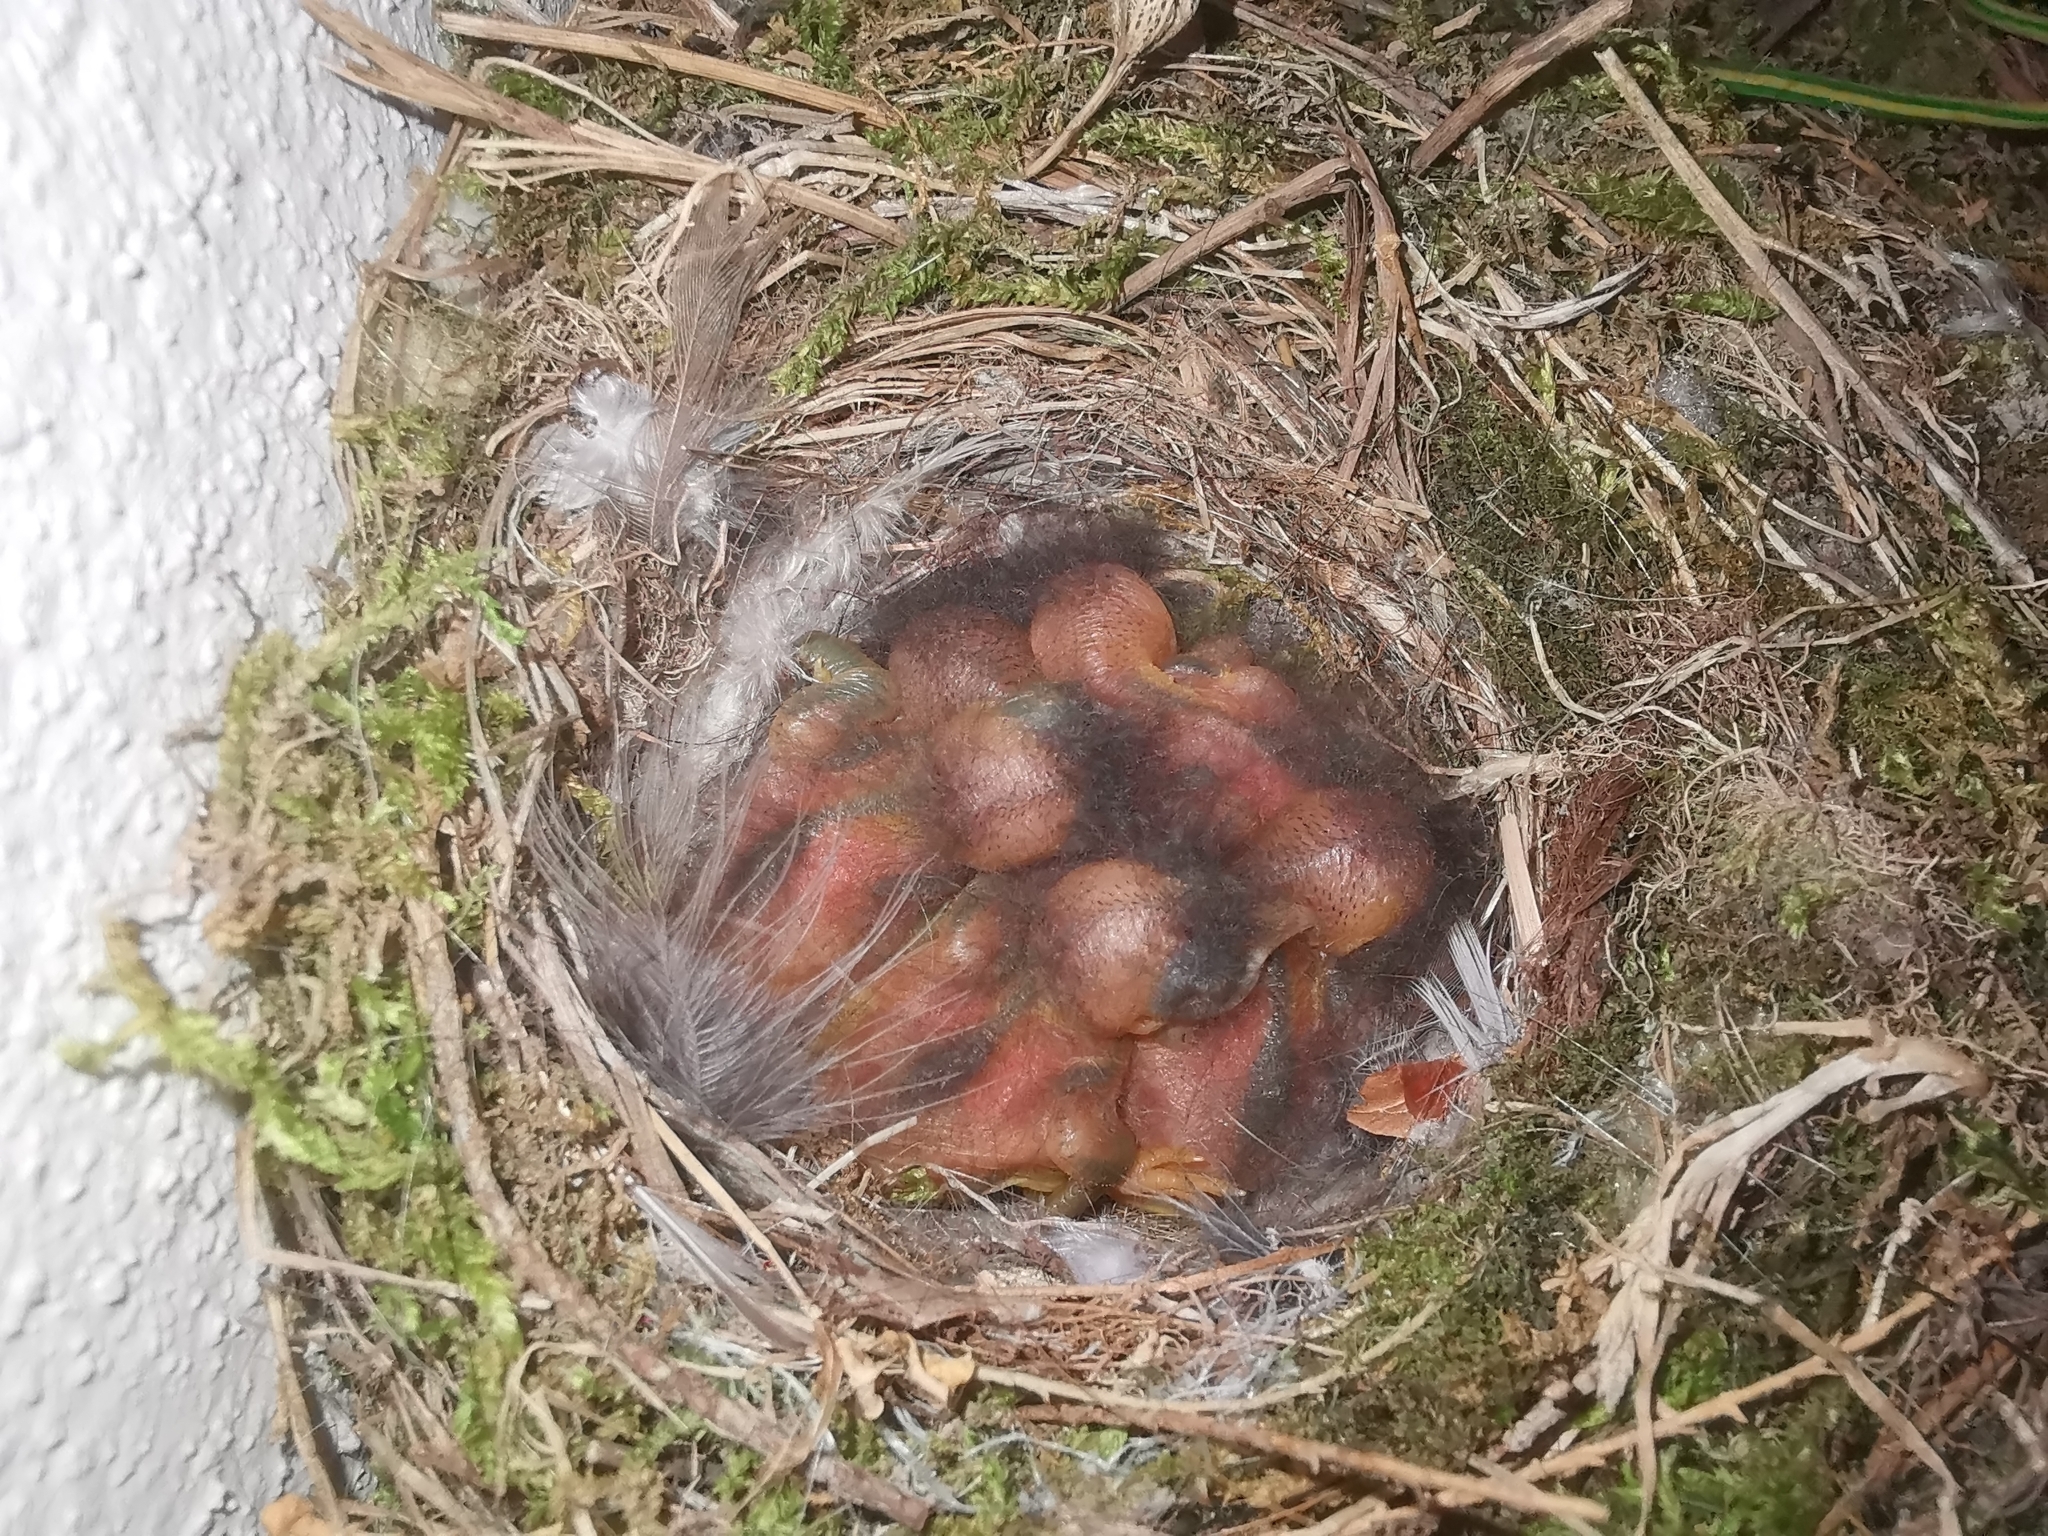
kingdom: Animalia
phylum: Chordata
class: Aves
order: Passeriformes
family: Muscicapidae
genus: Phoenicurus
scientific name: Phoenicurus ochruros
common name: Black redstart
